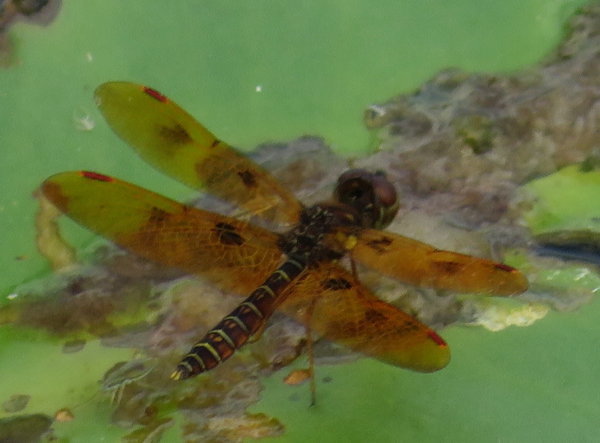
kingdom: Animalia
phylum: Arthropoda
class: Insecta
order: Odonata
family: Libellulidae
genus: Perithemis
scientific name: Perithemis tenera
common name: Eastern amberwing
